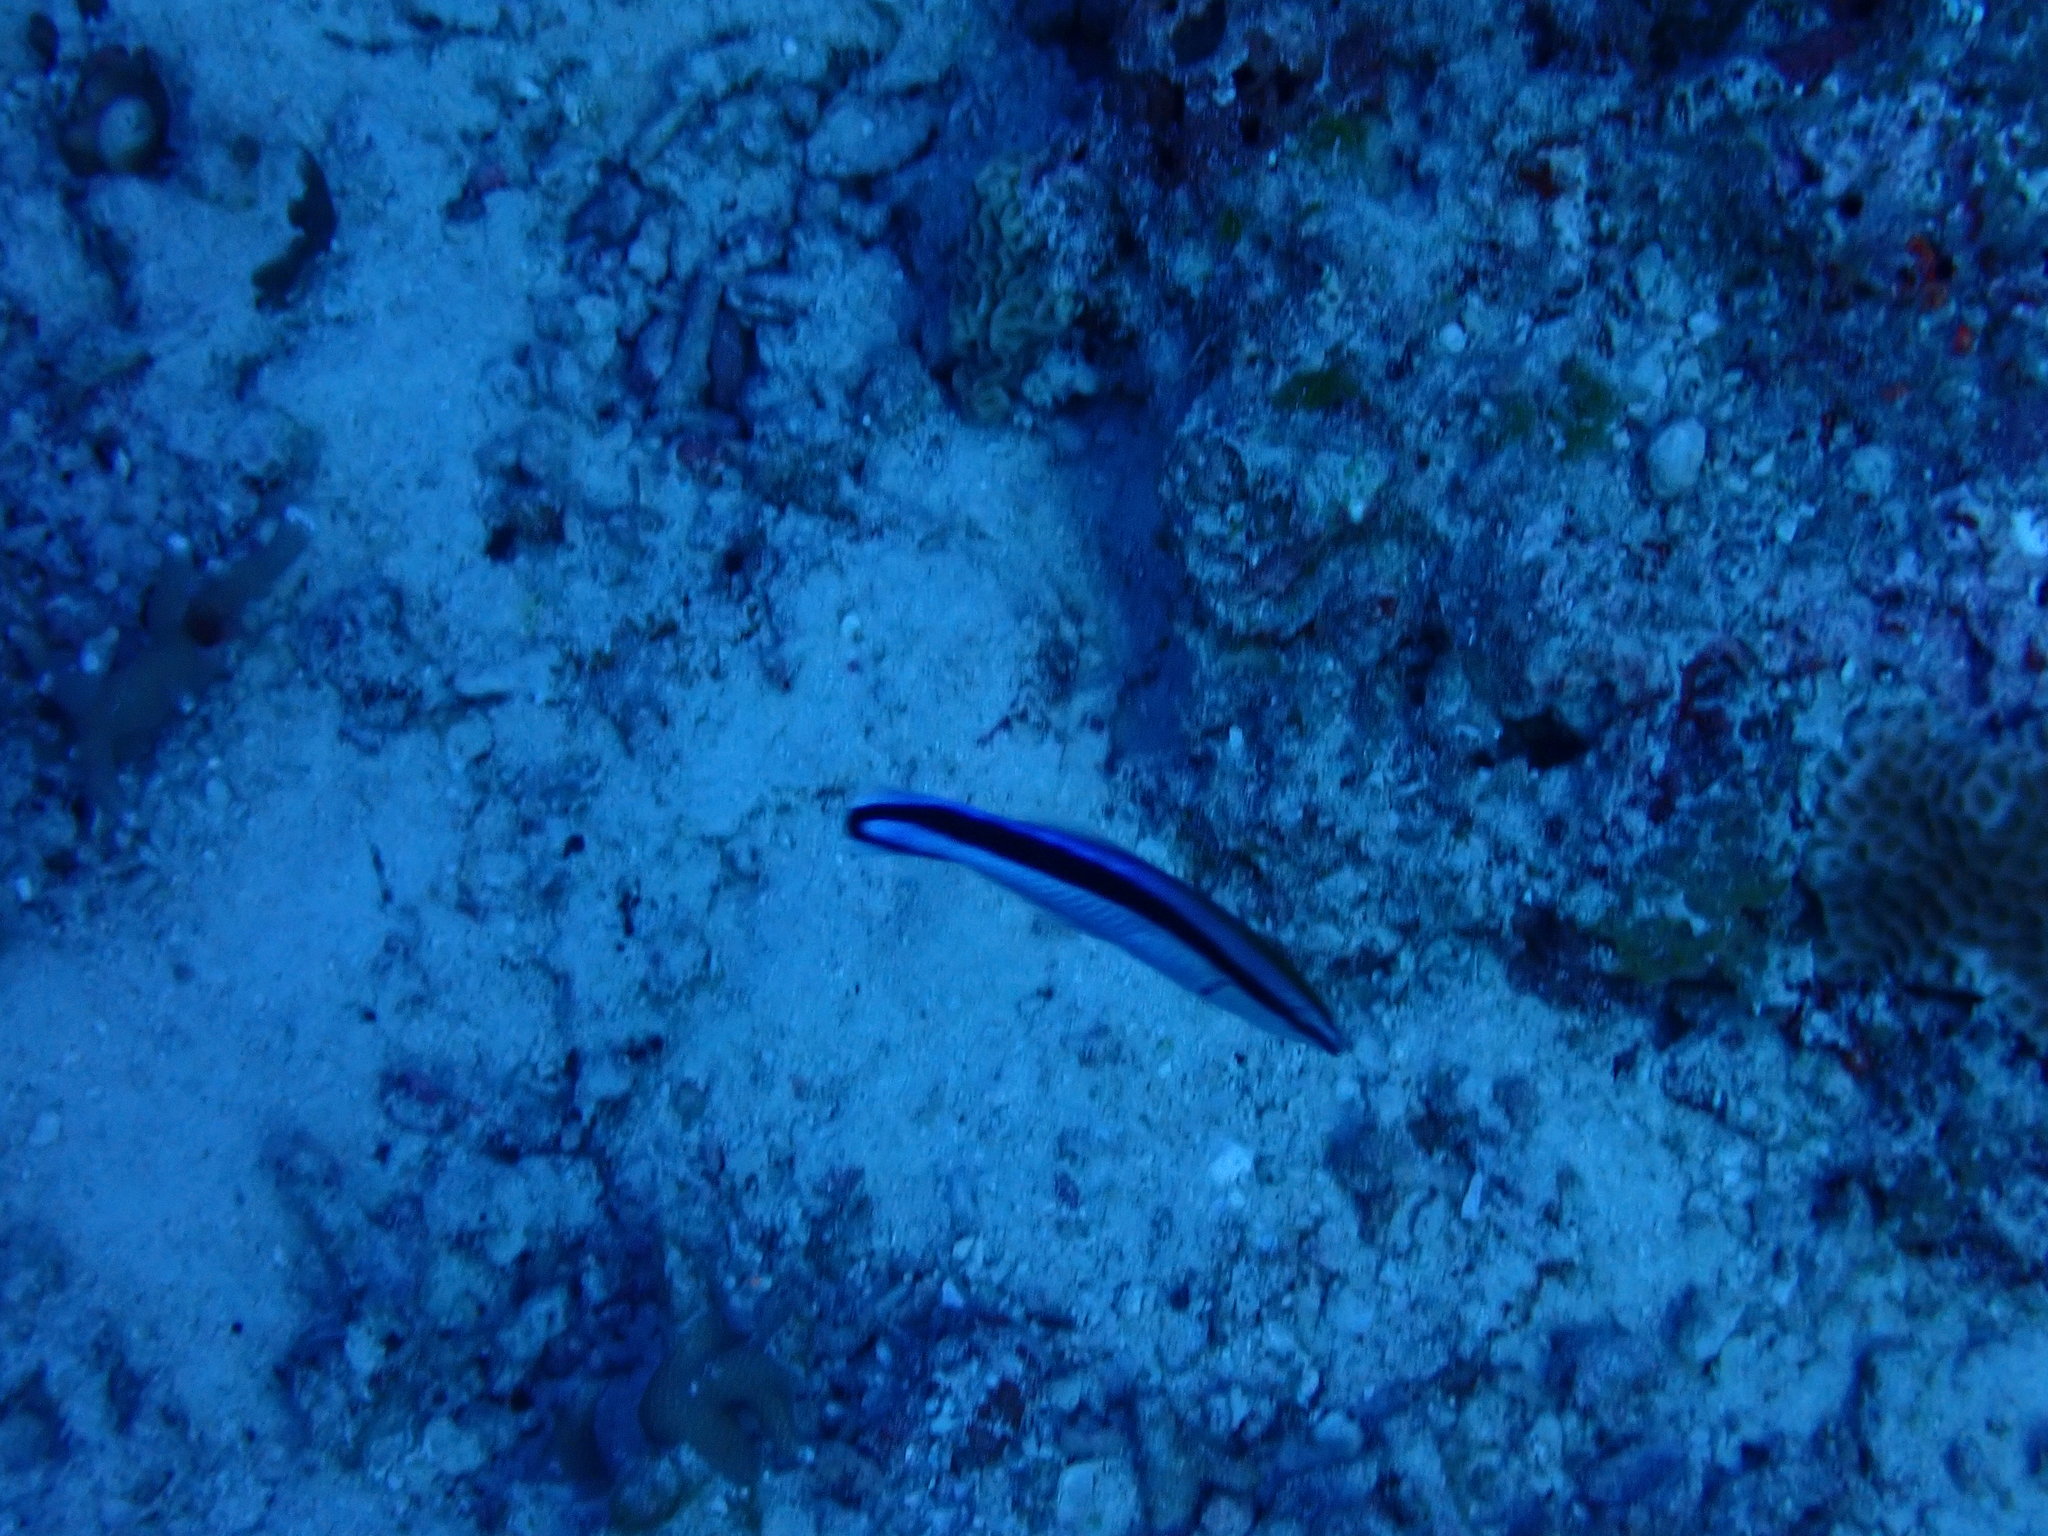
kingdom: Animalia
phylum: Chordata
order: Perciformes
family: Labridae
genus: Labroides
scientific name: Labroides dimidiatus
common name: Blue diesel wrasse
